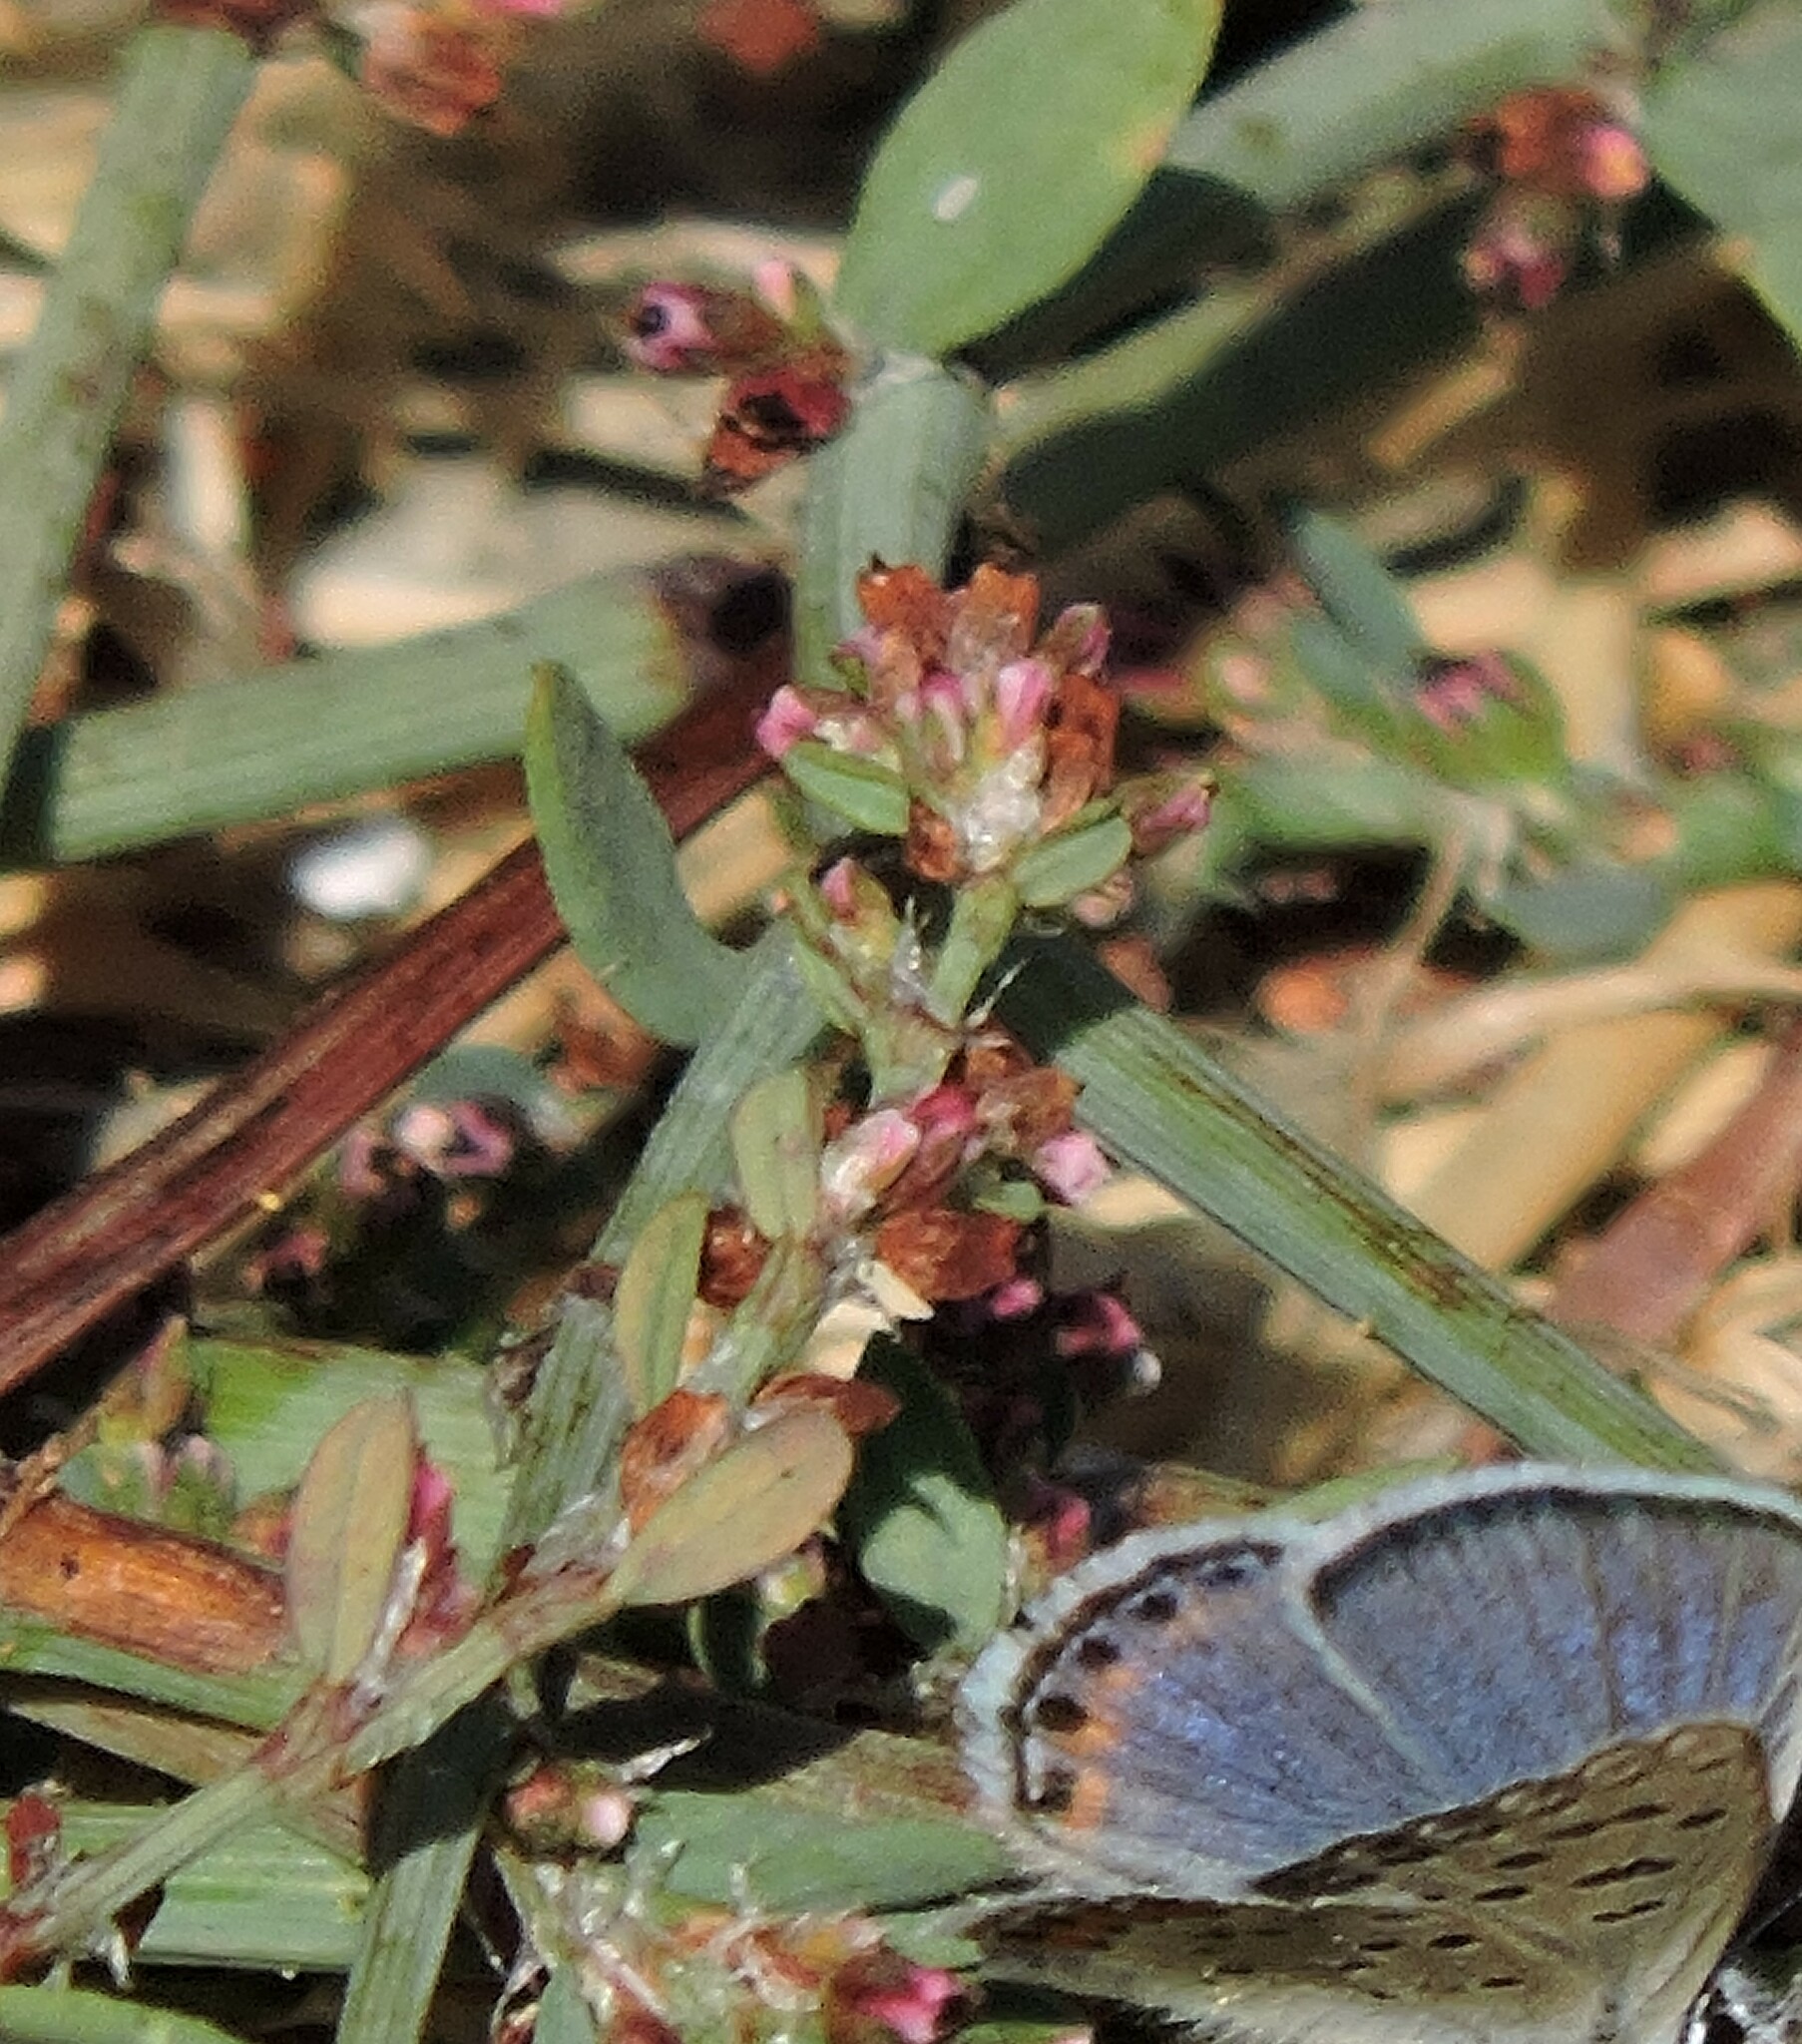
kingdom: Plantae
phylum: Tracheophyta
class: Magnoliopsida
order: Caryophyllales
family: Polygonaceae
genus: Polygonum
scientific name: Polygonum aviculare
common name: Prostrate knotweed
